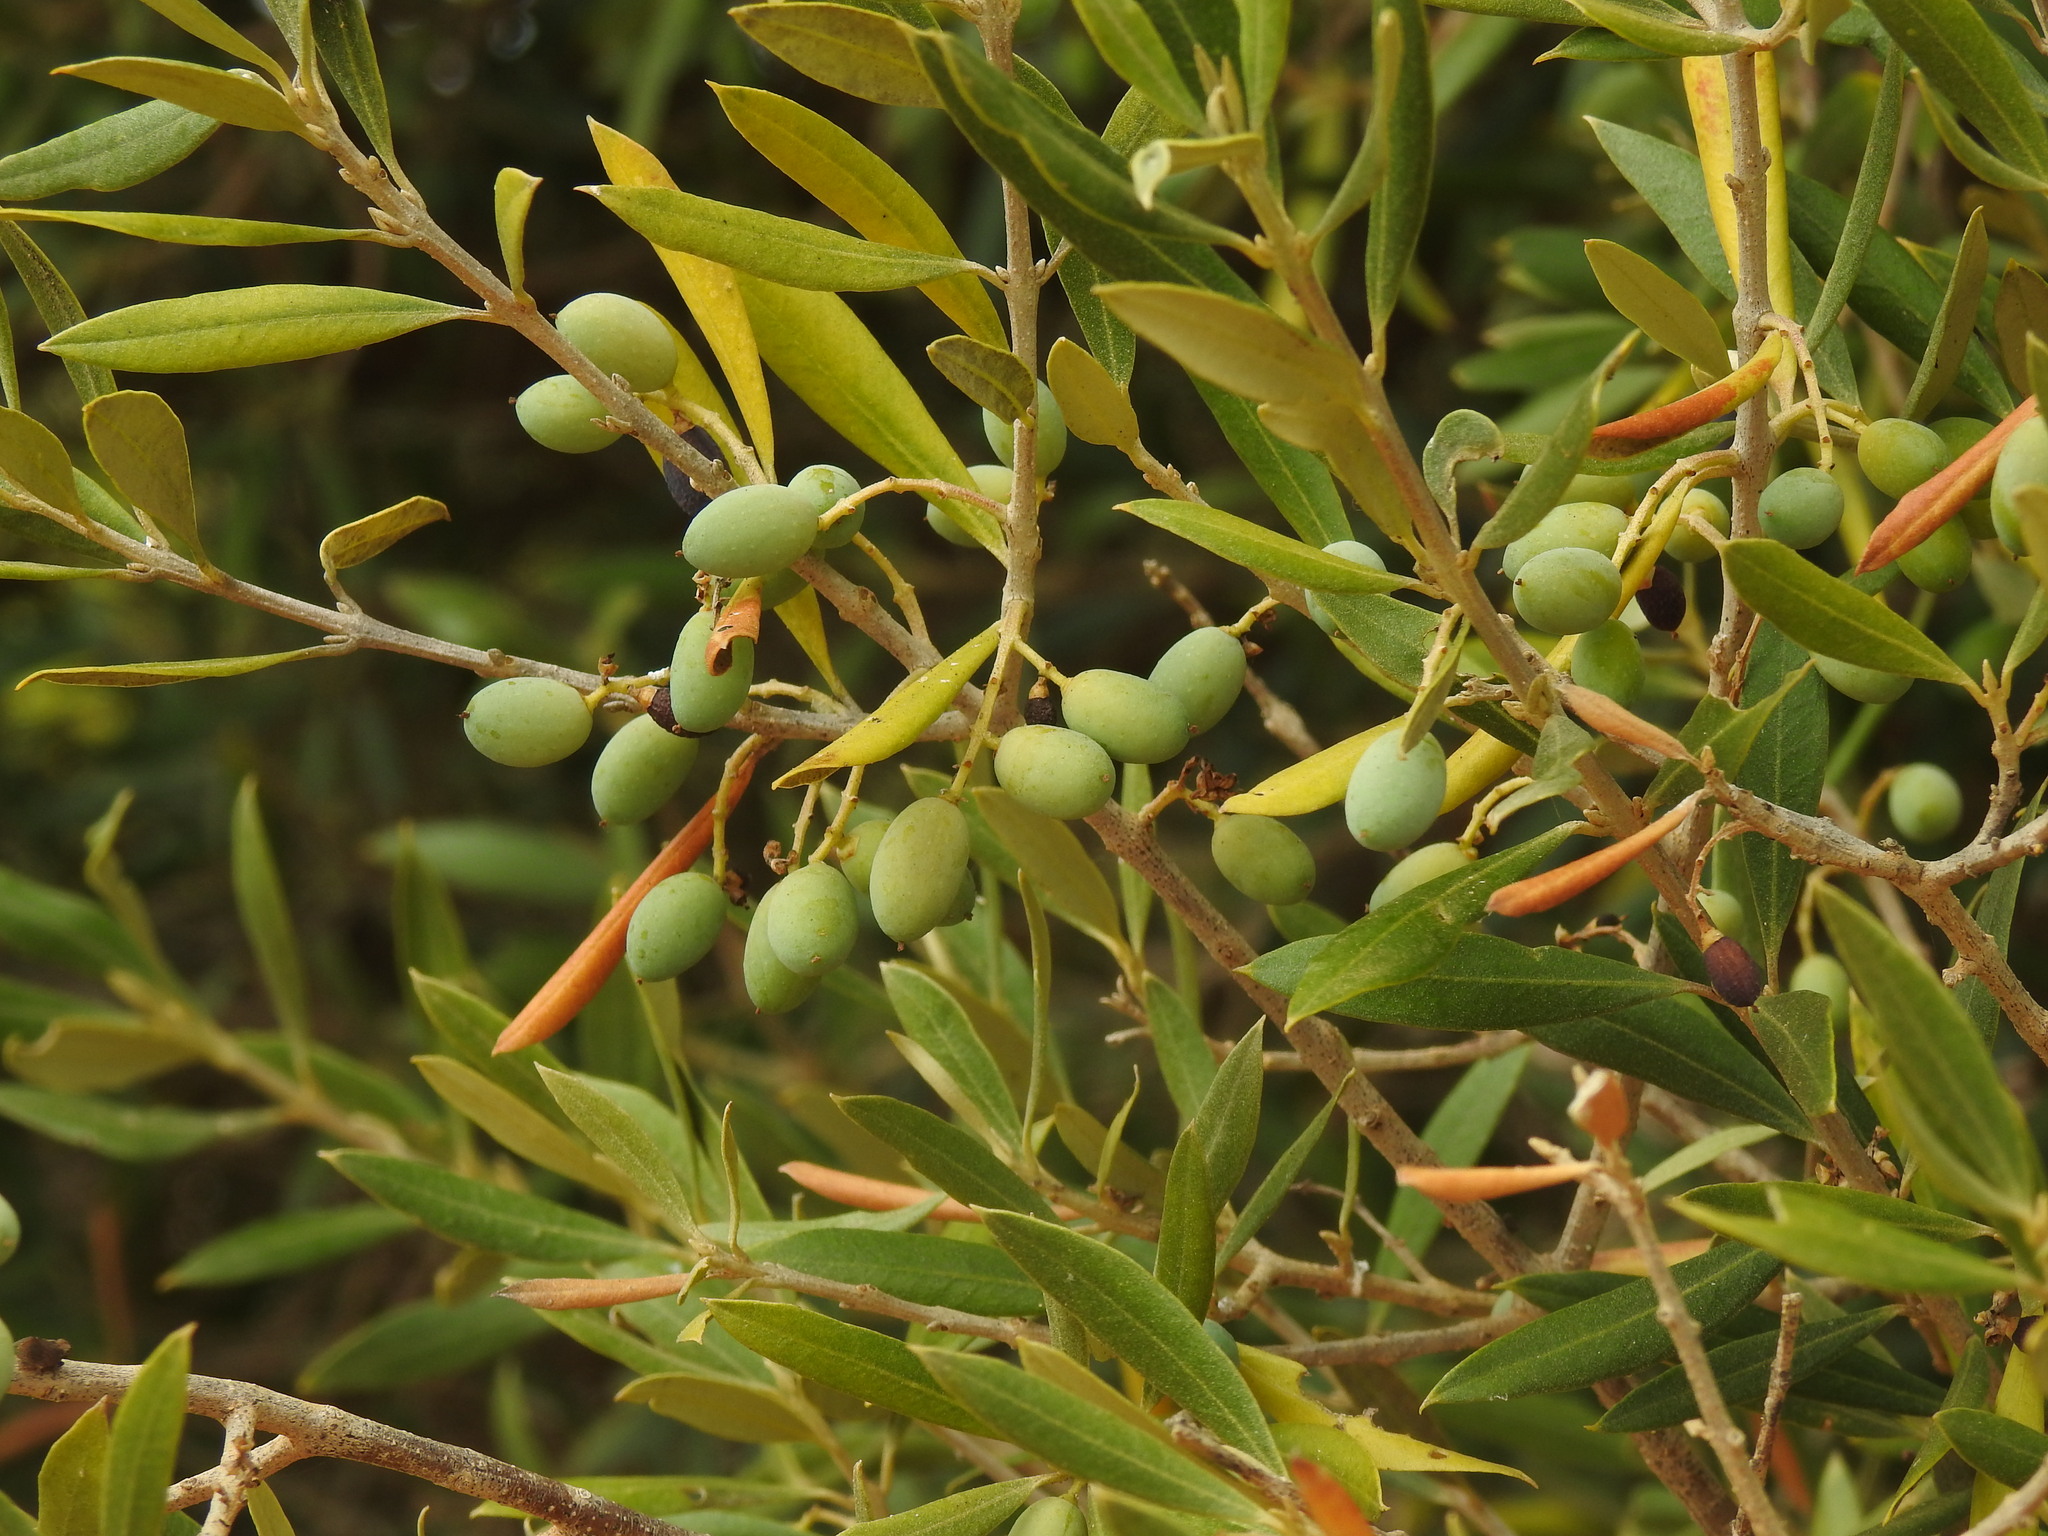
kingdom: Plantae
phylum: Tracheophyta
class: Magnoliopsida
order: Lamiales
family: Oleaceae
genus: Olea
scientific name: Olea europaea
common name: Olive
